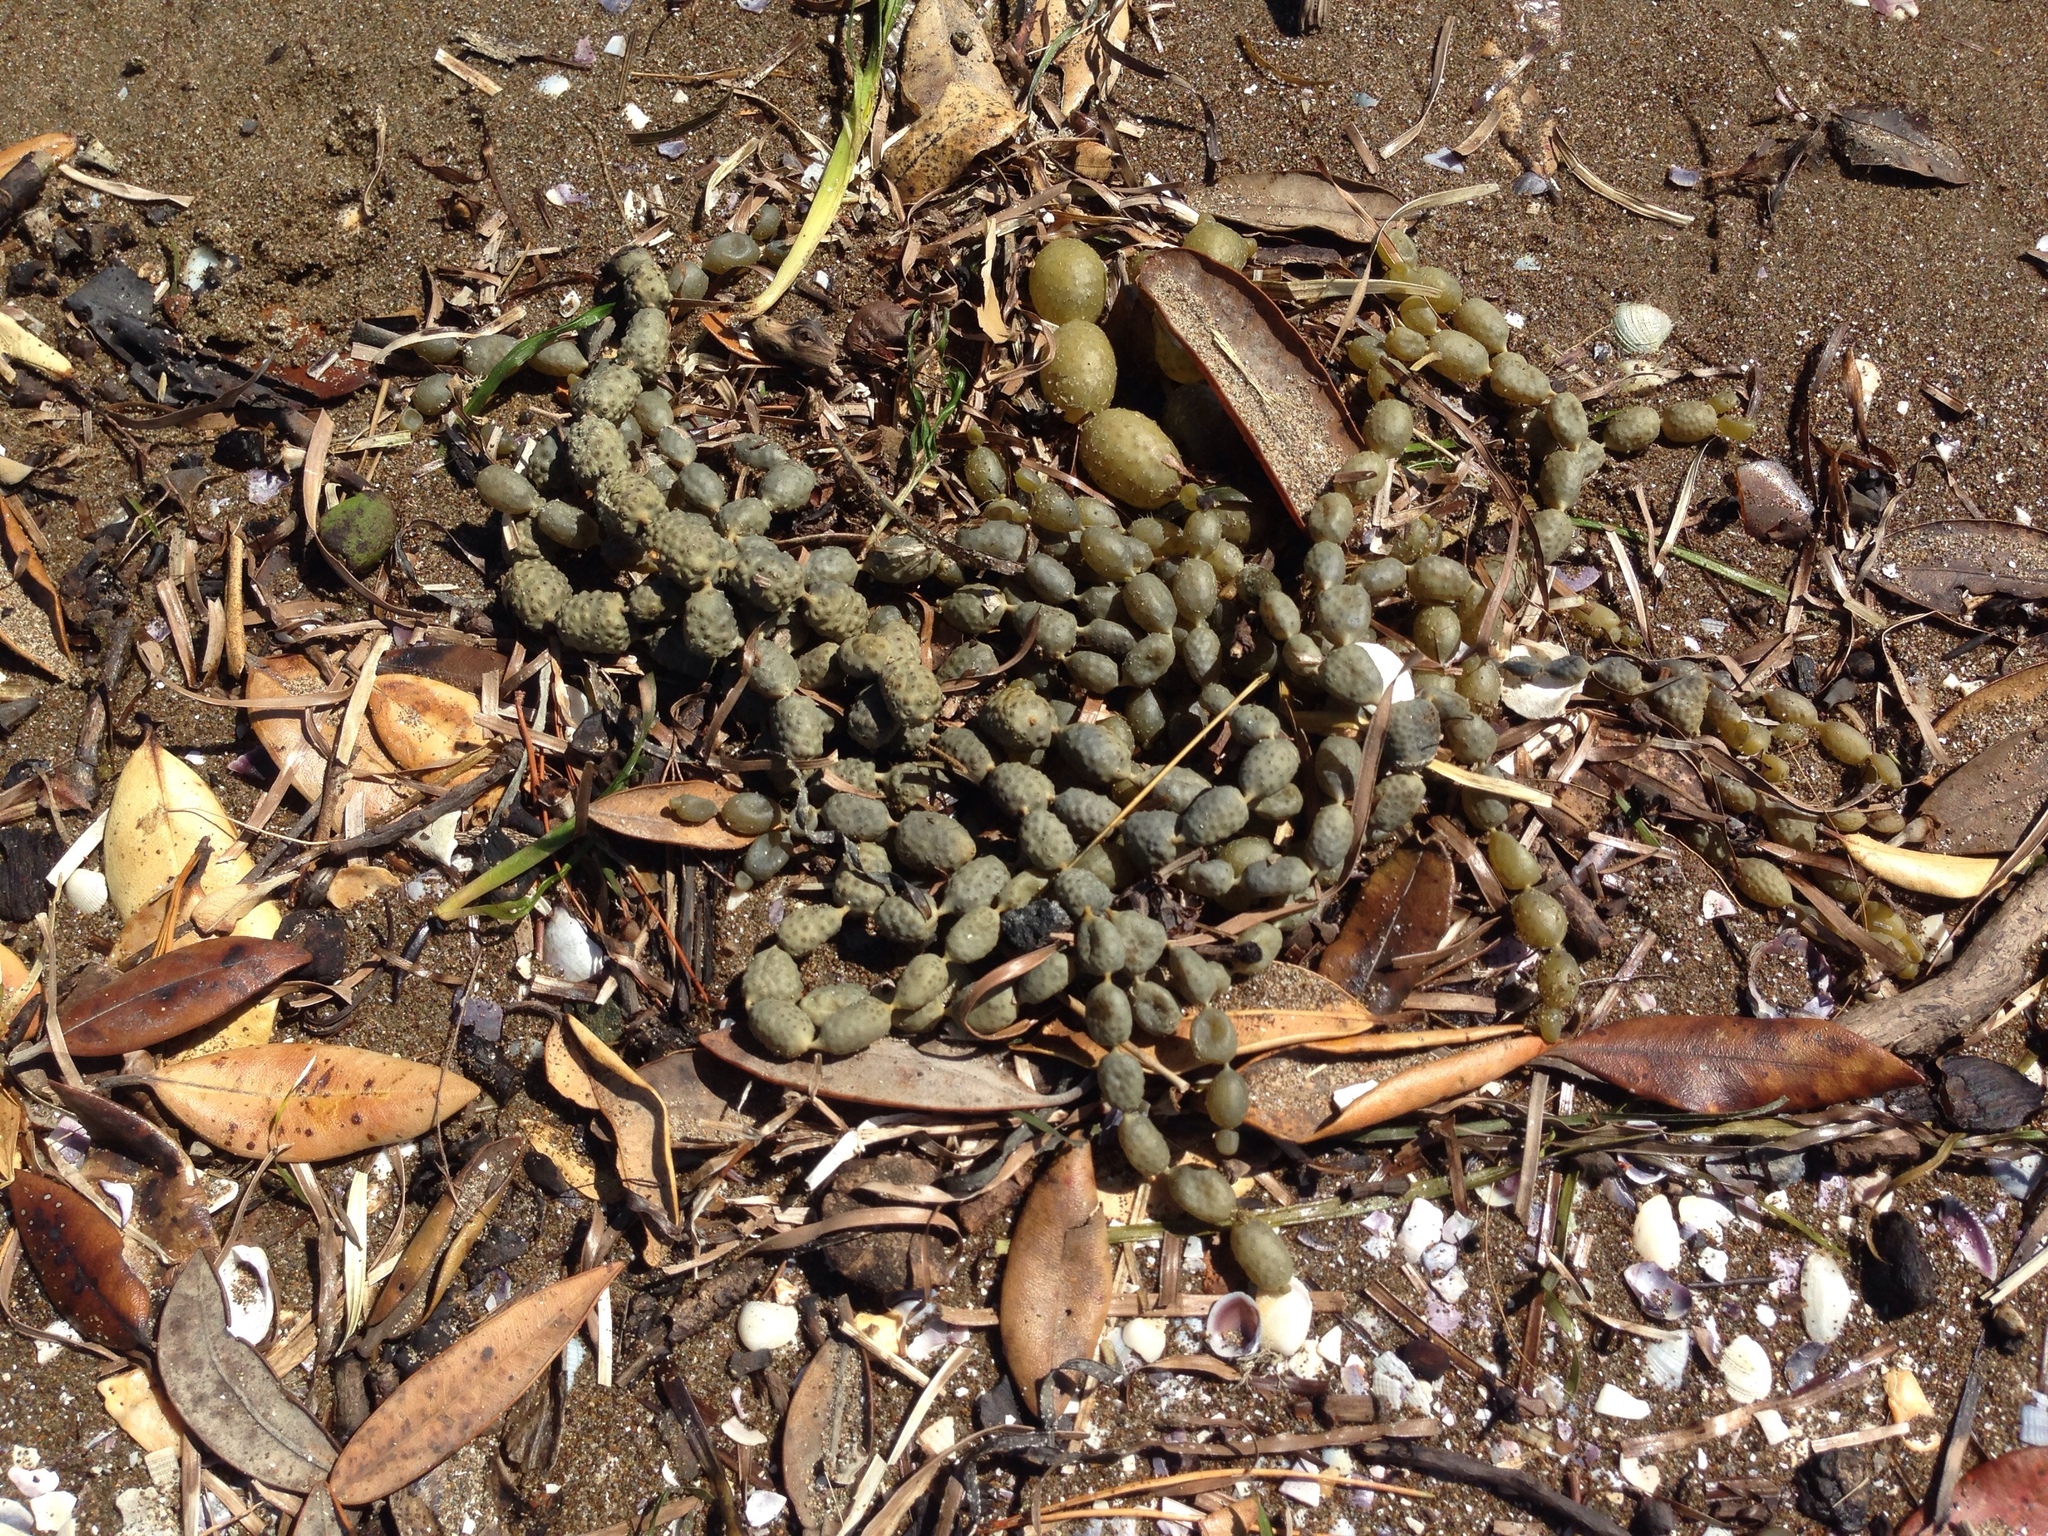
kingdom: Chromista
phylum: Ochrophyta
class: Phaeophyceae
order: Fucales
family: Hormosiraceae
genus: Hormosira
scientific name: Hormosira banksii
